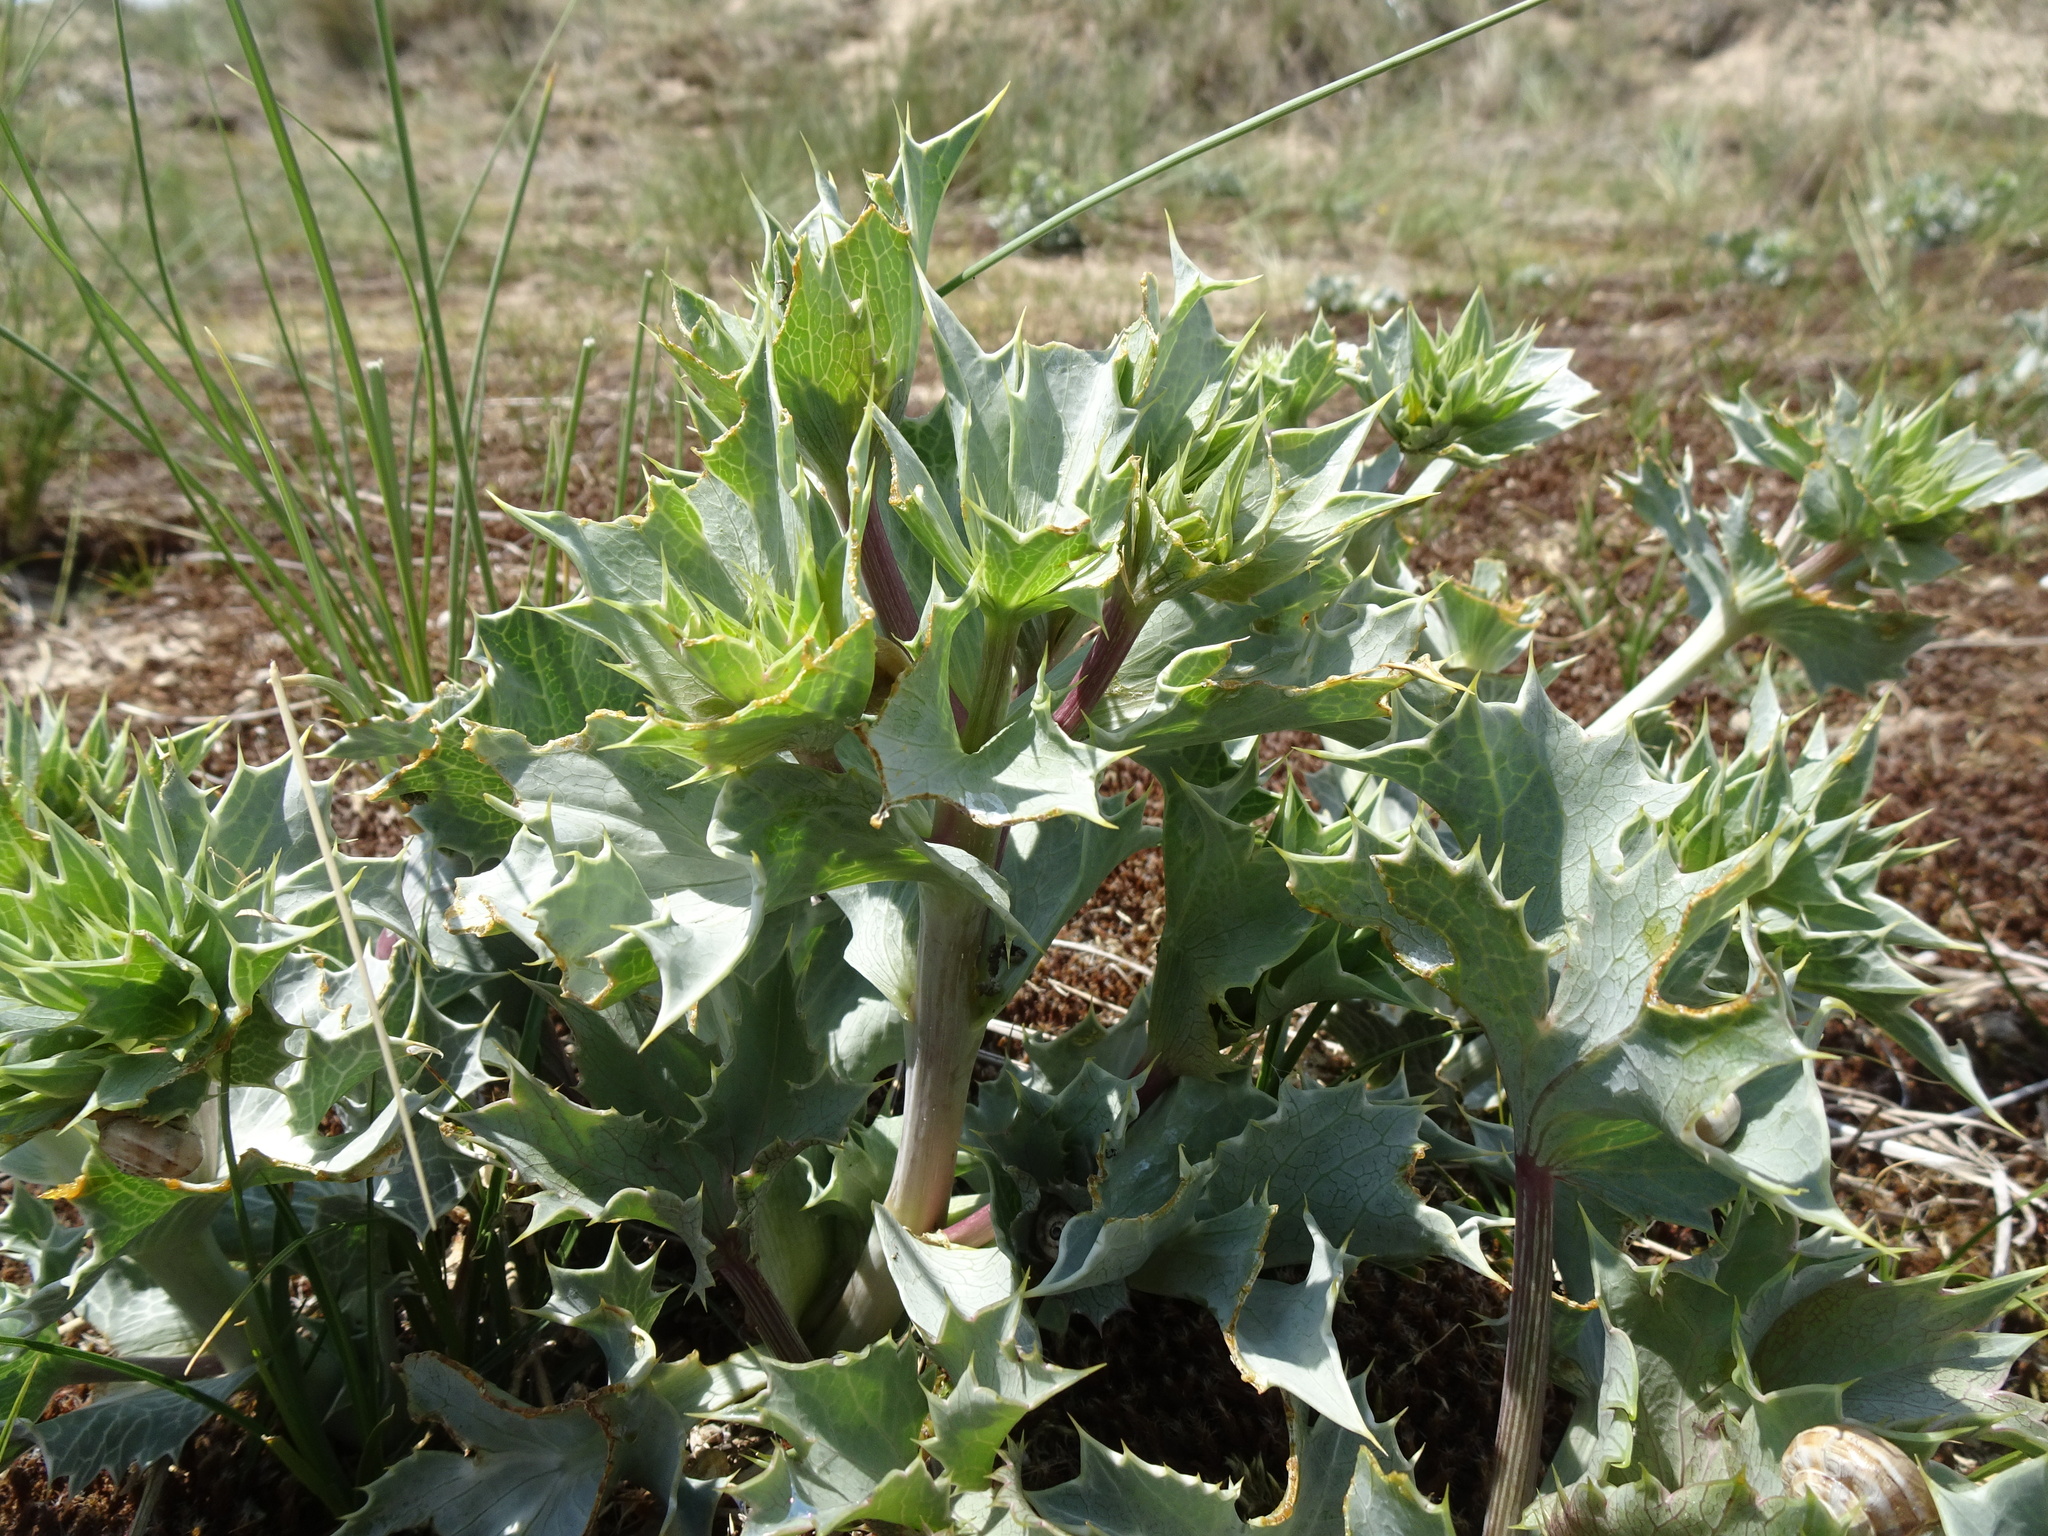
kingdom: Plantae
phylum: Tracheophyta
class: Magnoliopsida
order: Apiales
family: Apiaceae
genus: Eryngium
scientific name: Eryngium maritimum
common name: Sea-holly
